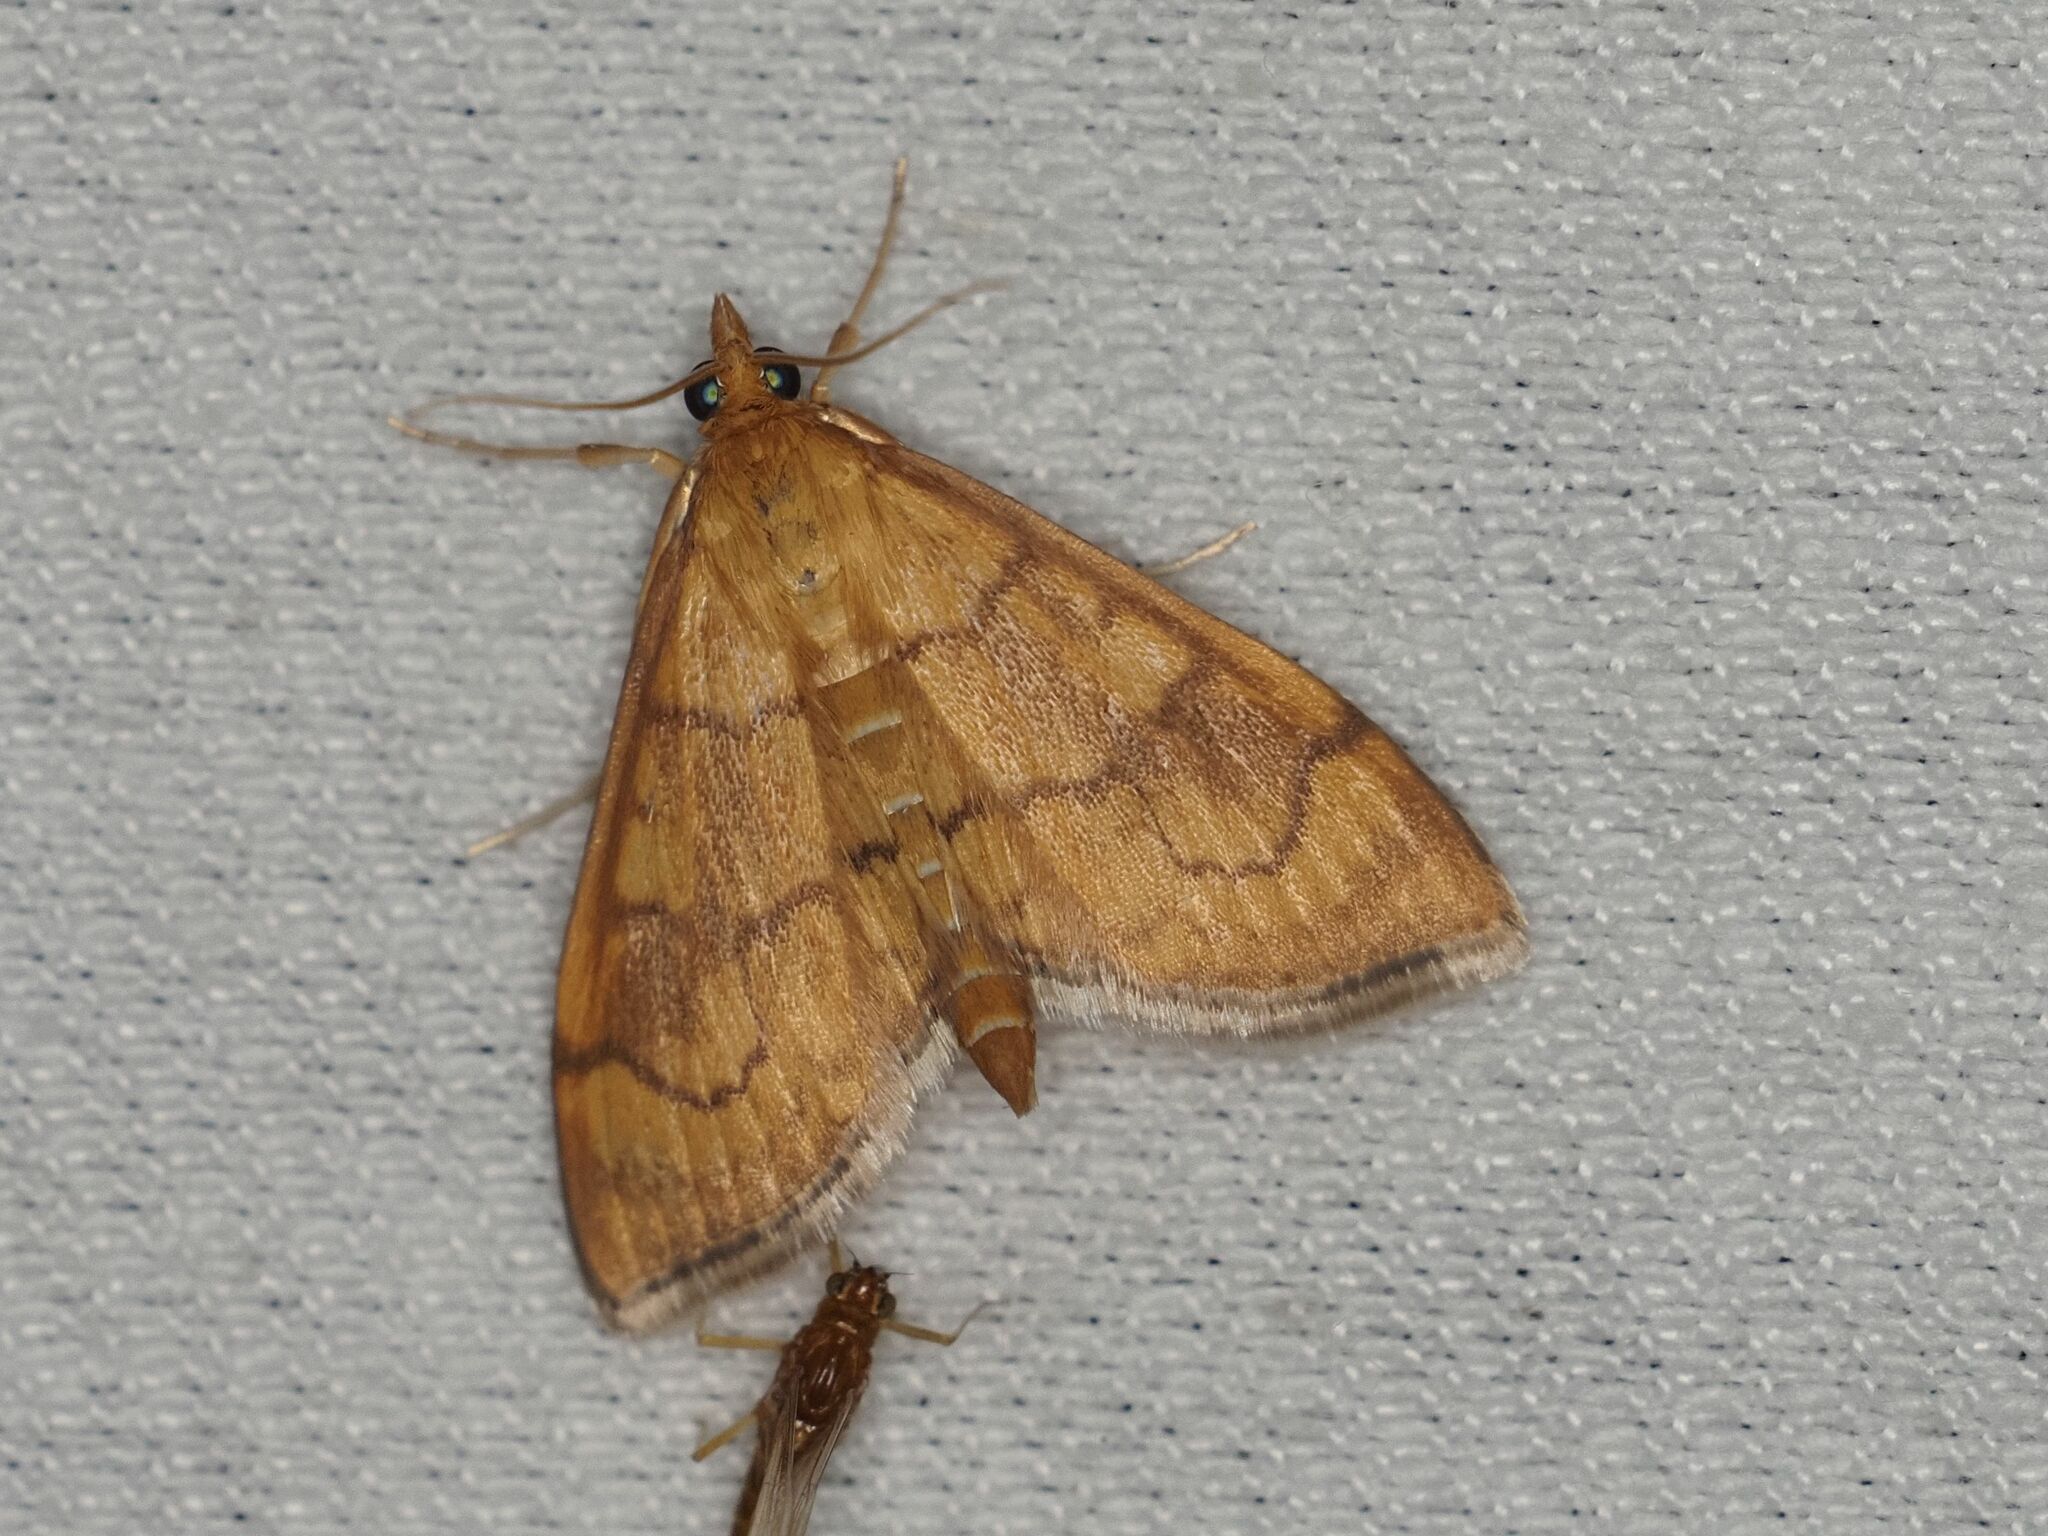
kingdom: Animalia
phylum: Arthropoda
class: Insecta
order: Lepidoptera
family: Crambidae
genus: Anania
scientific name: Anania verbascalis
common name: Golden pearl
